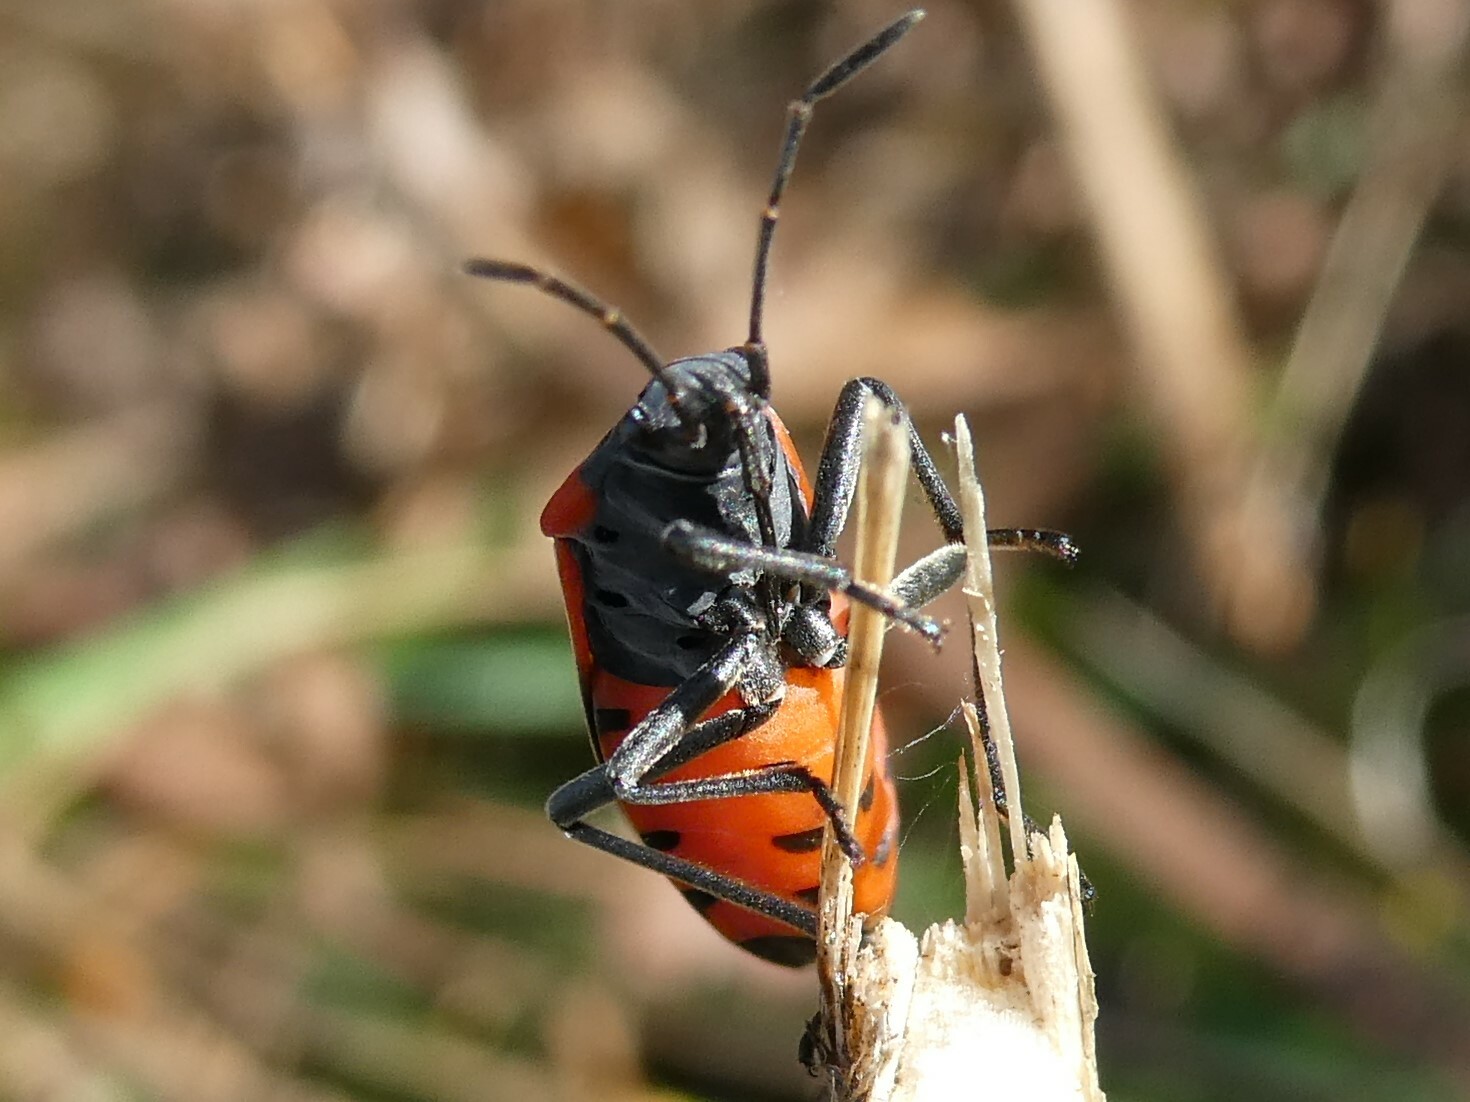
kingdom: Animalia
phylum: Arthropoda
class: Insecta
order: Hemiptera
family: Lygaeidae
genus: Lygaeus
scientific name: Lygaeus kalmii
